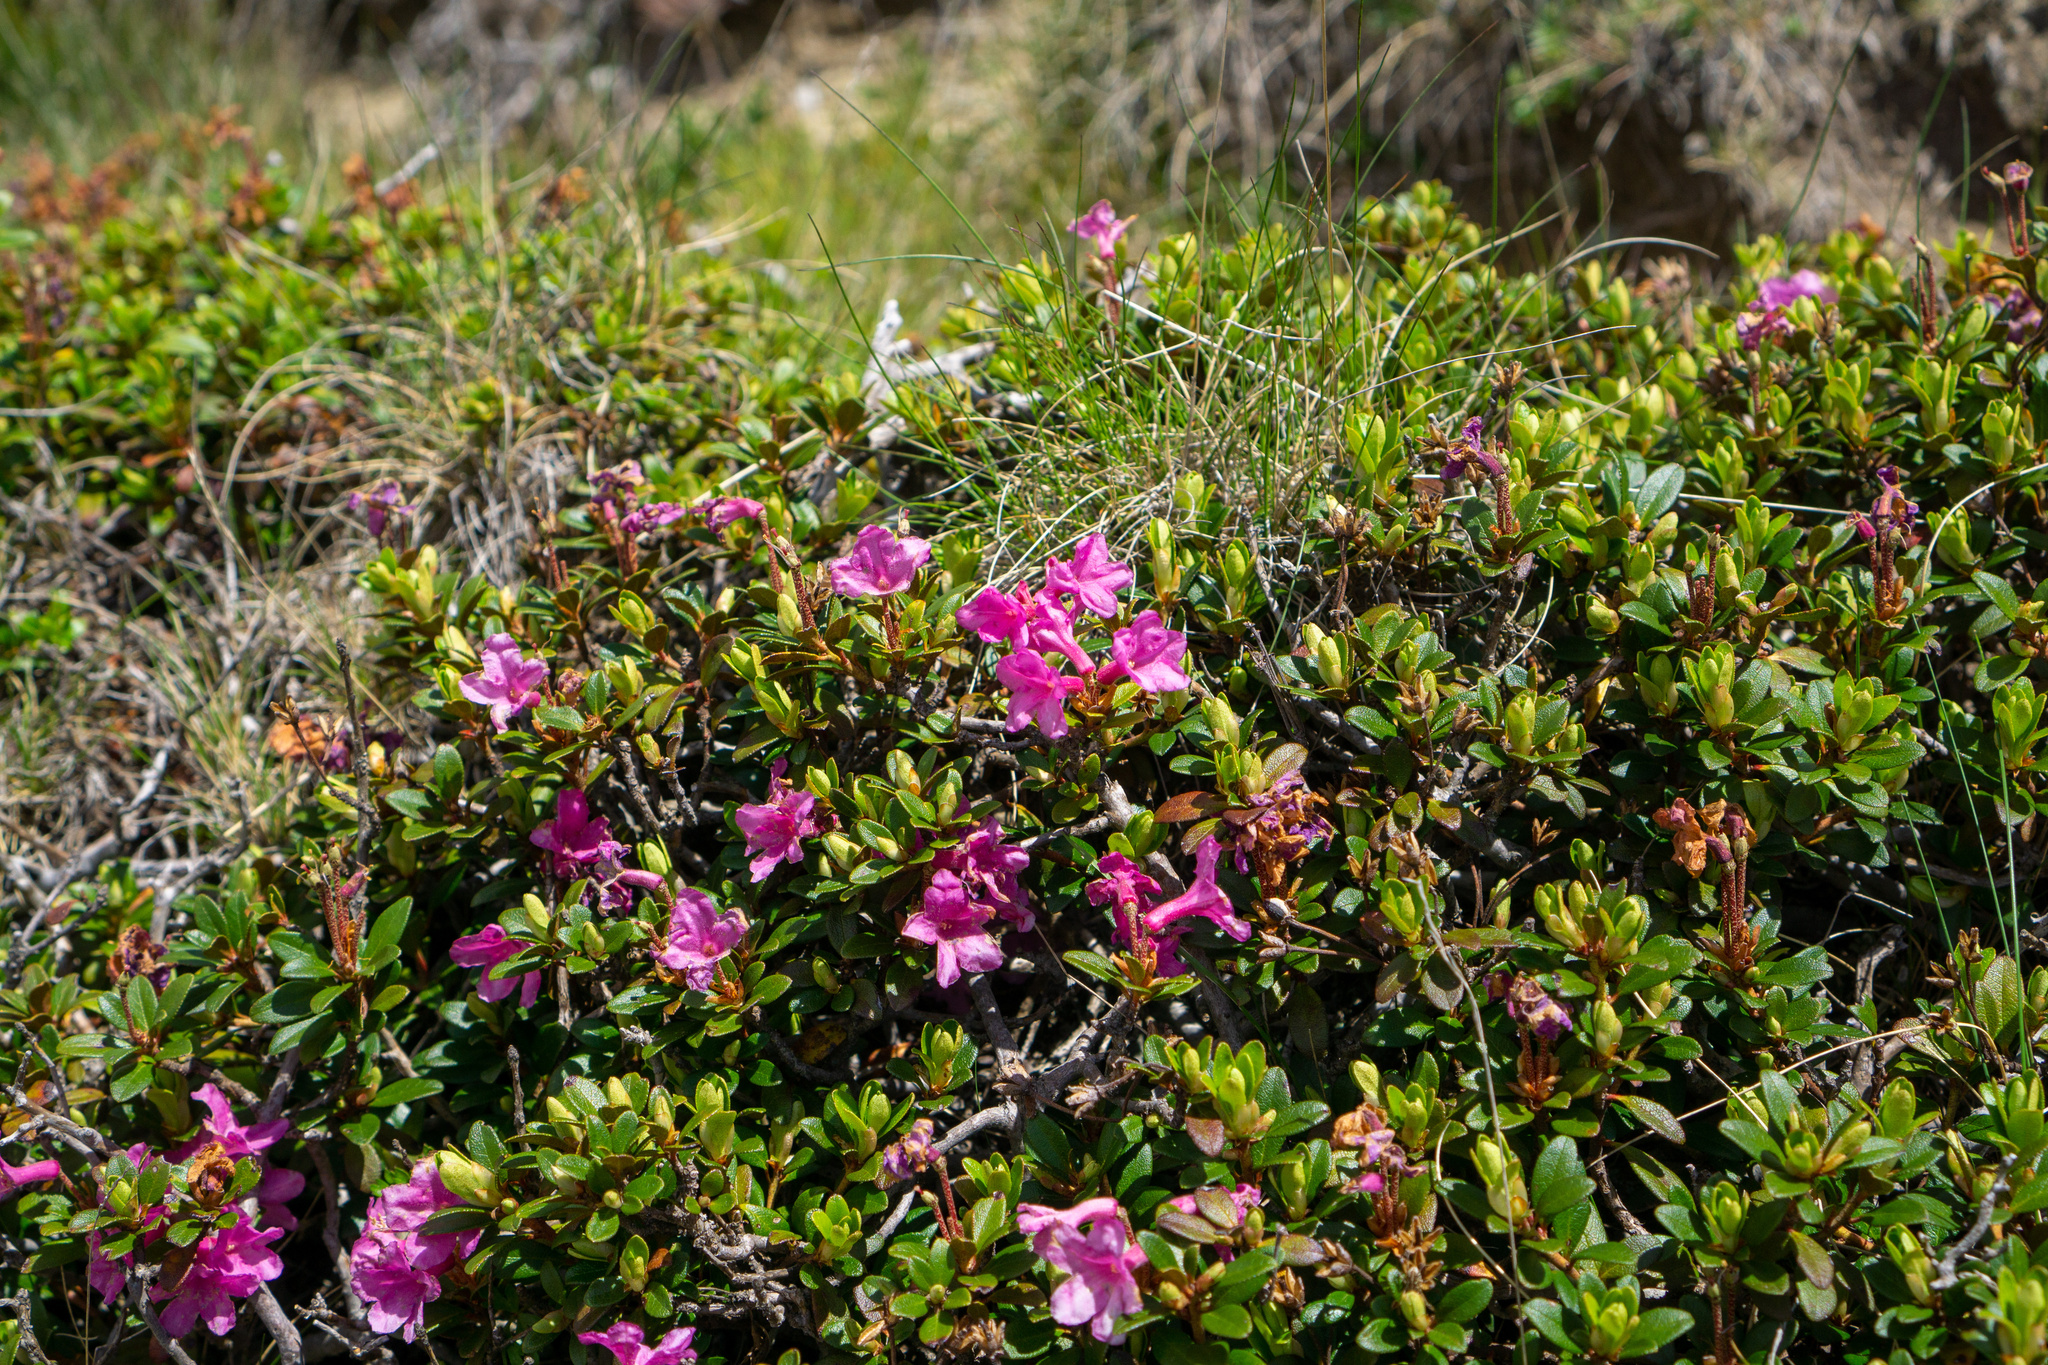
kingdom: Plantae
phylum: Tracheophyta
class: Magnoliopsida
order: Ericales
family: Ericaceae
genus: Rhododendron
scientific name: Rhododendron kotschyi
